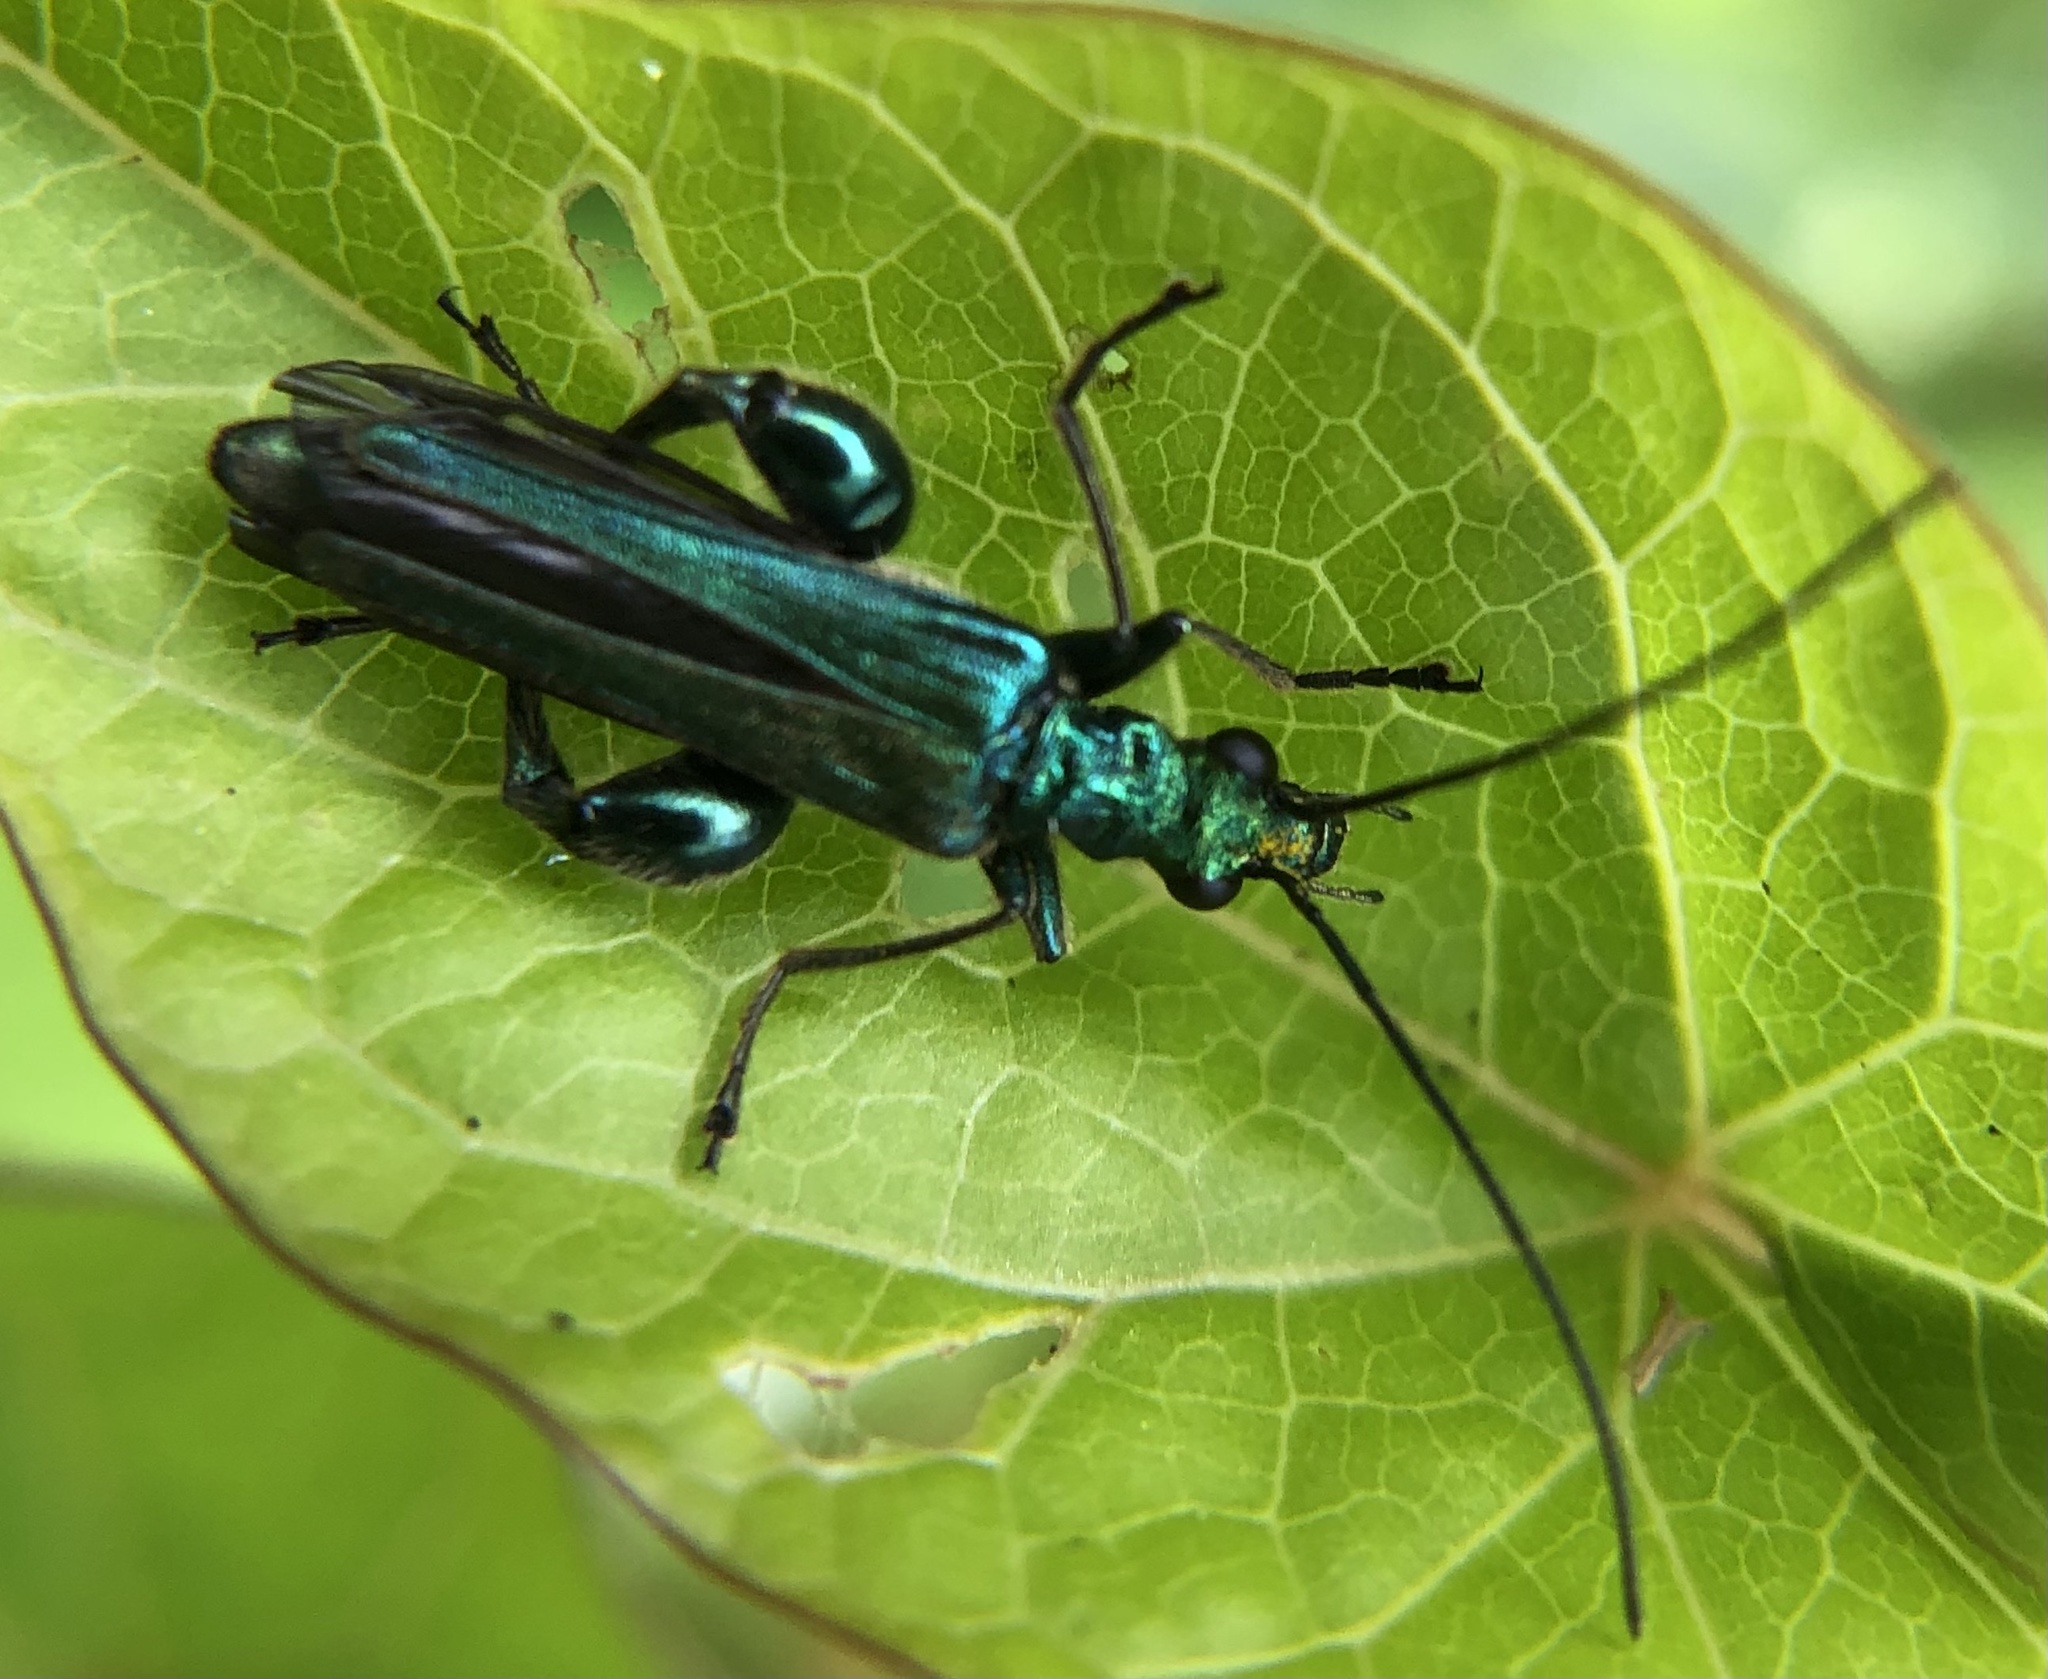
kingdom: Animalia
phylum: Arthropoda
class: Insecta
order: Coleoptera
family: Oedemeridae
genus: Oedemera
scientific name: Oedemera nobilis
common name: Swollen-thighed beetle
